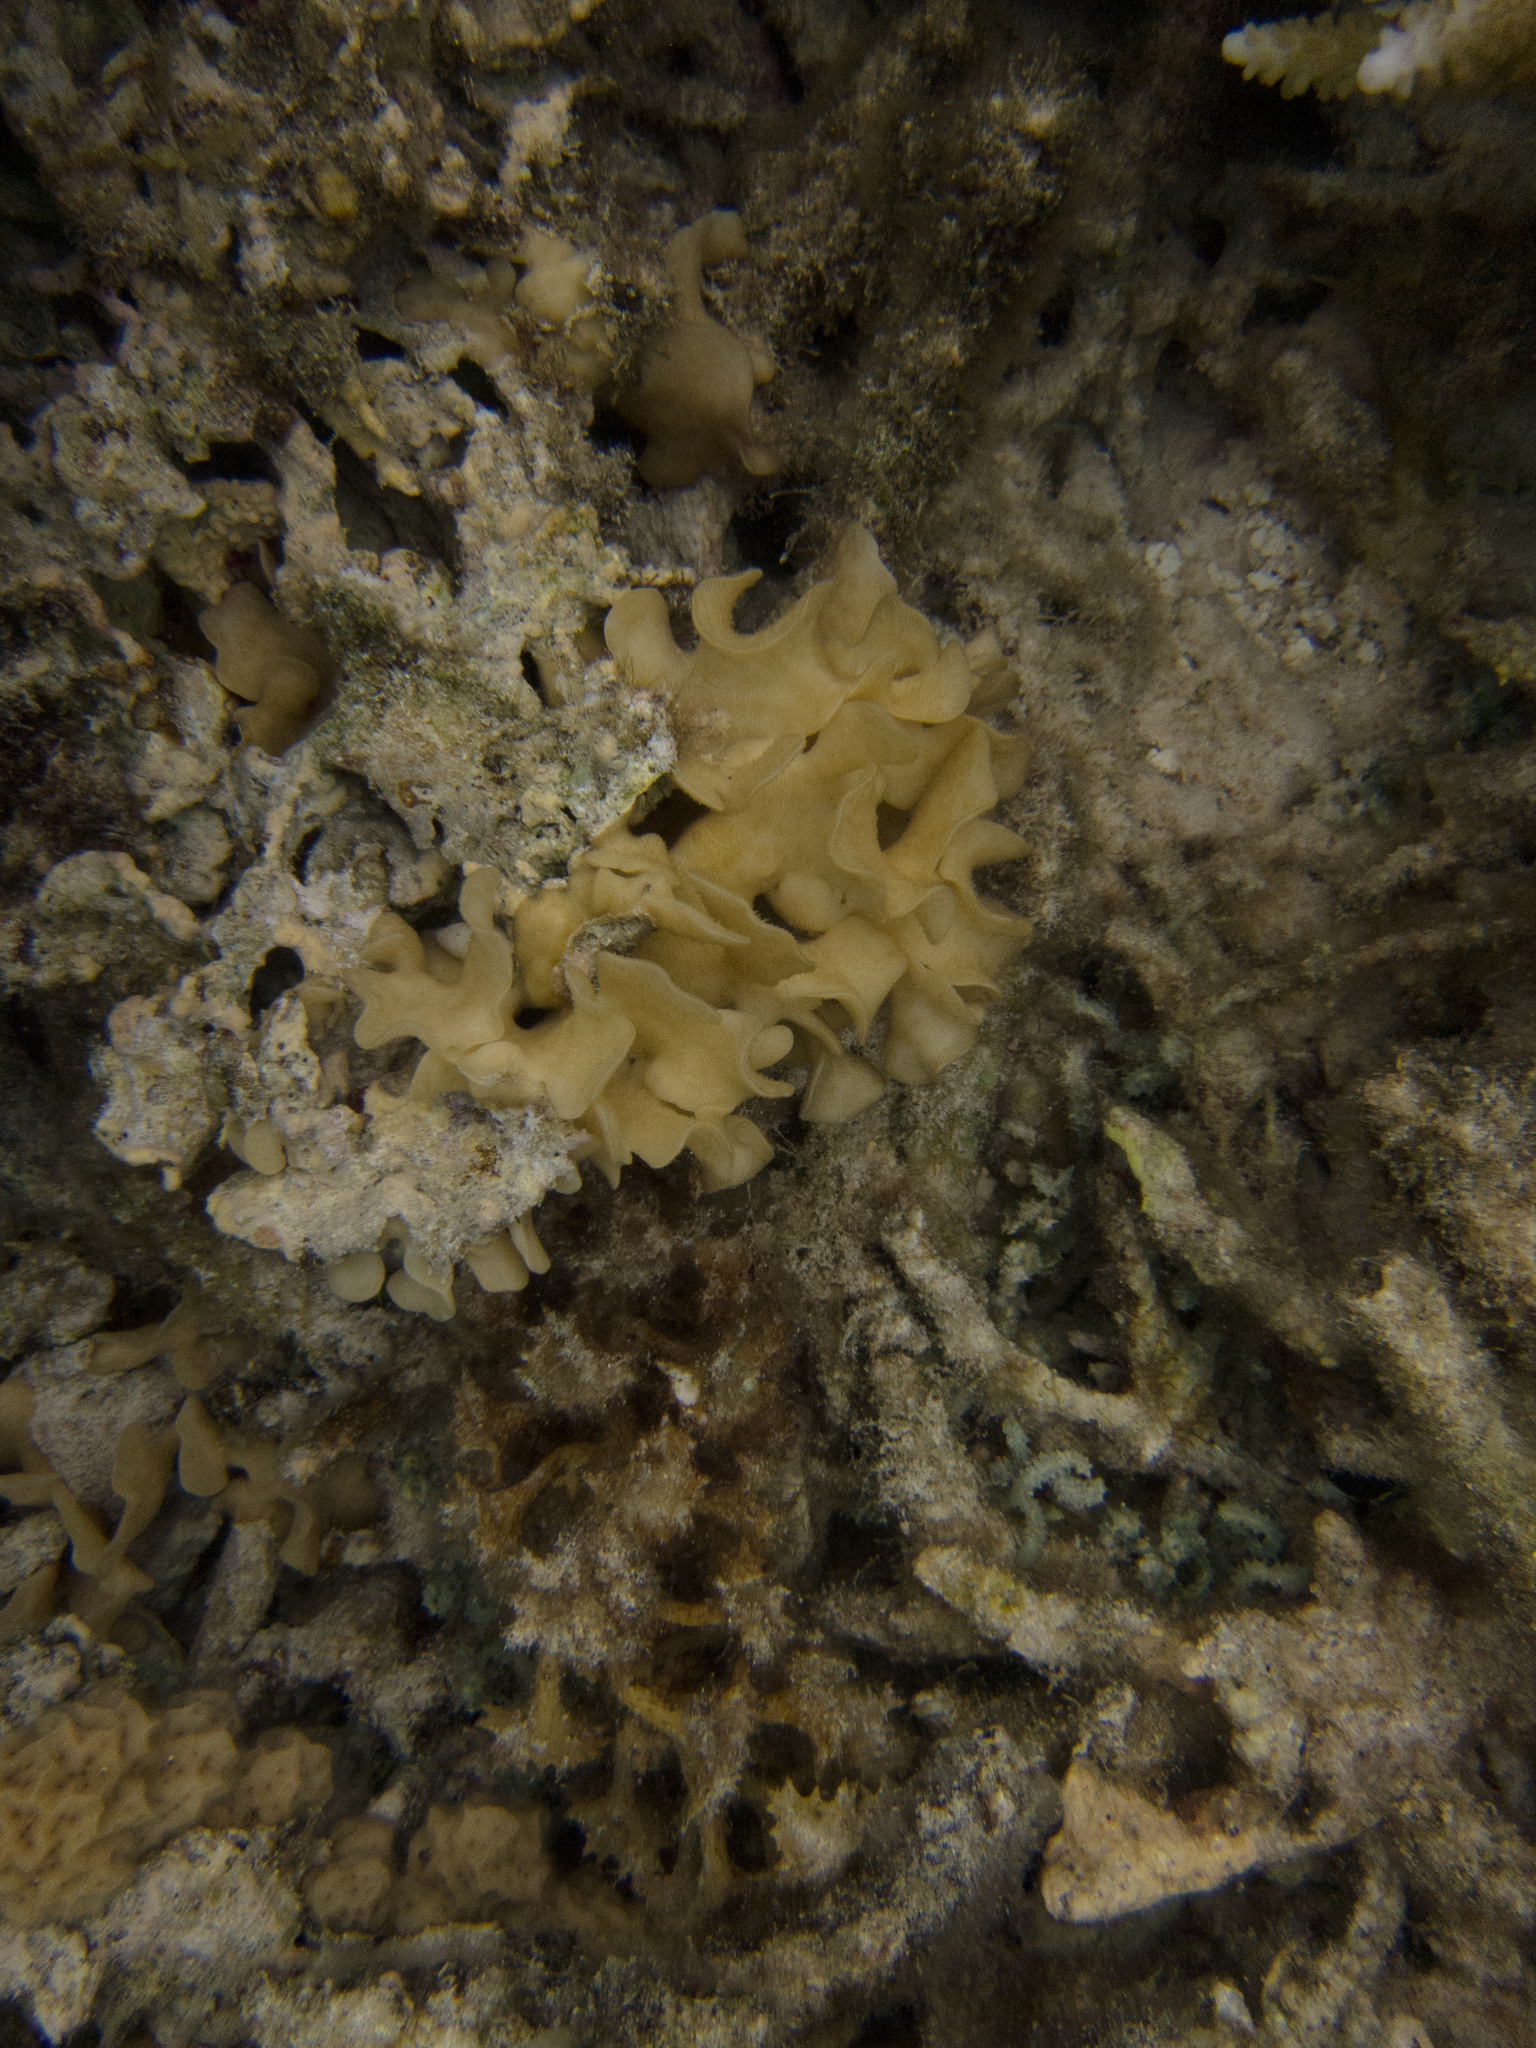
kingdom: Animalia
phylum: Cnidaria
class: Anthozoa
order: Scleractinia
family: Agariciidae
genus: Pavona
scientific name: Pavona cactus
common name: Leaf coral
